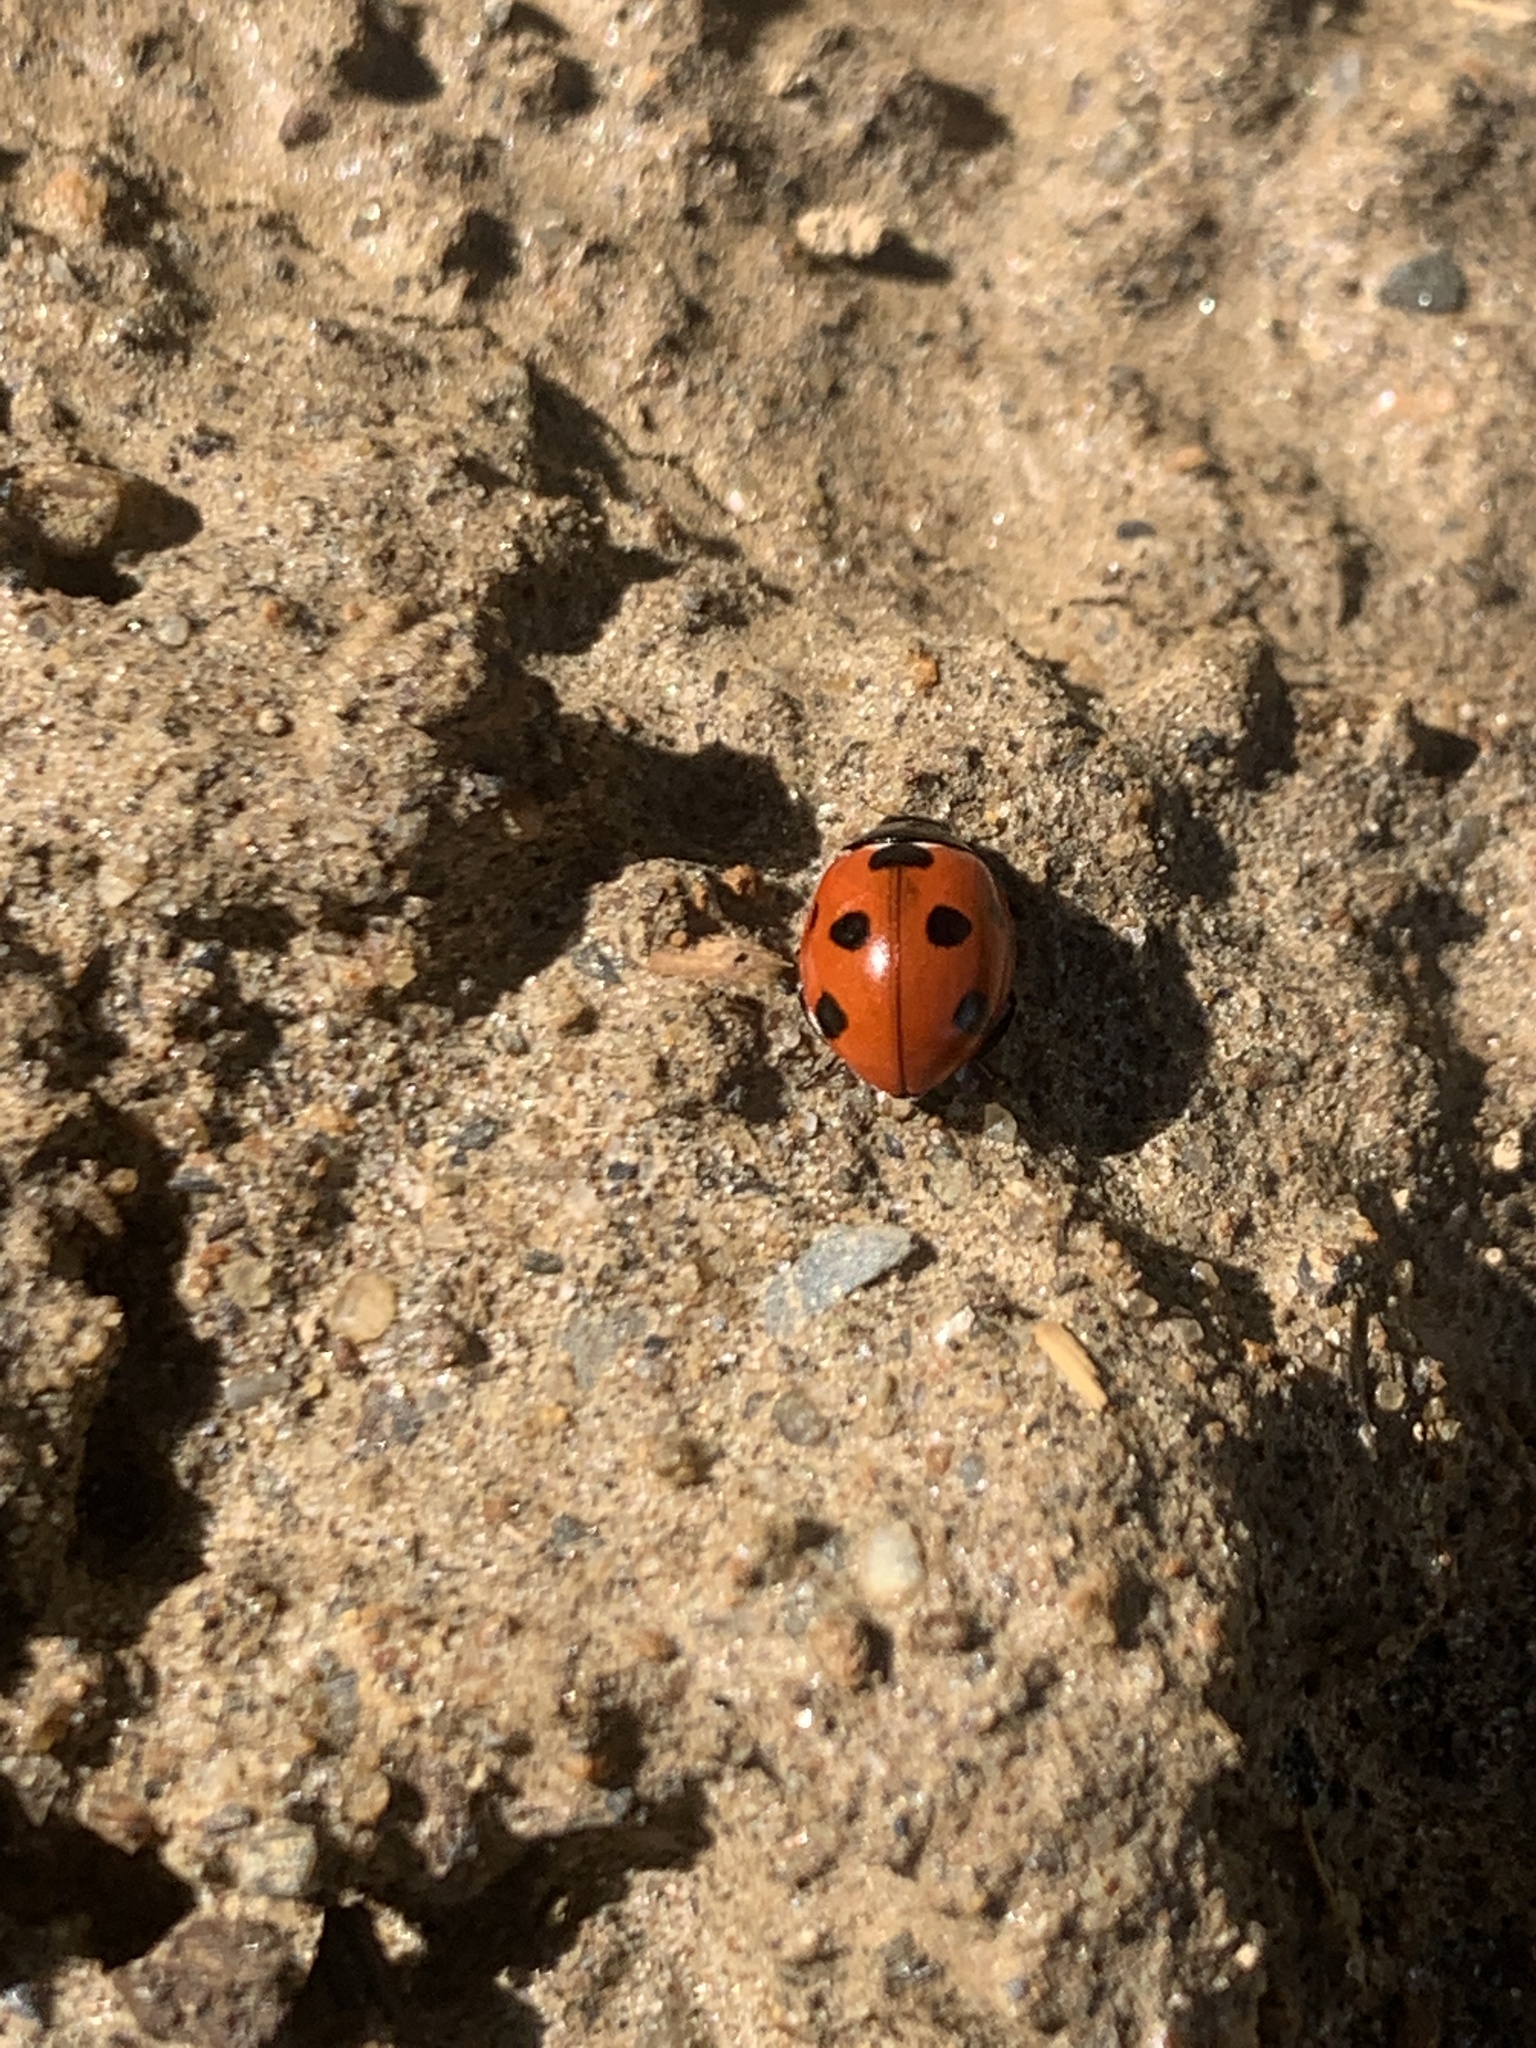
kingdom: Animalia
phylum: Arthropoda
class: Insecta
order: Coleoptera
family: Coccinellidae
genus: Coccinella
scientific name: Coccinella septempunctata
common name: Sevenspotted lady beetle
